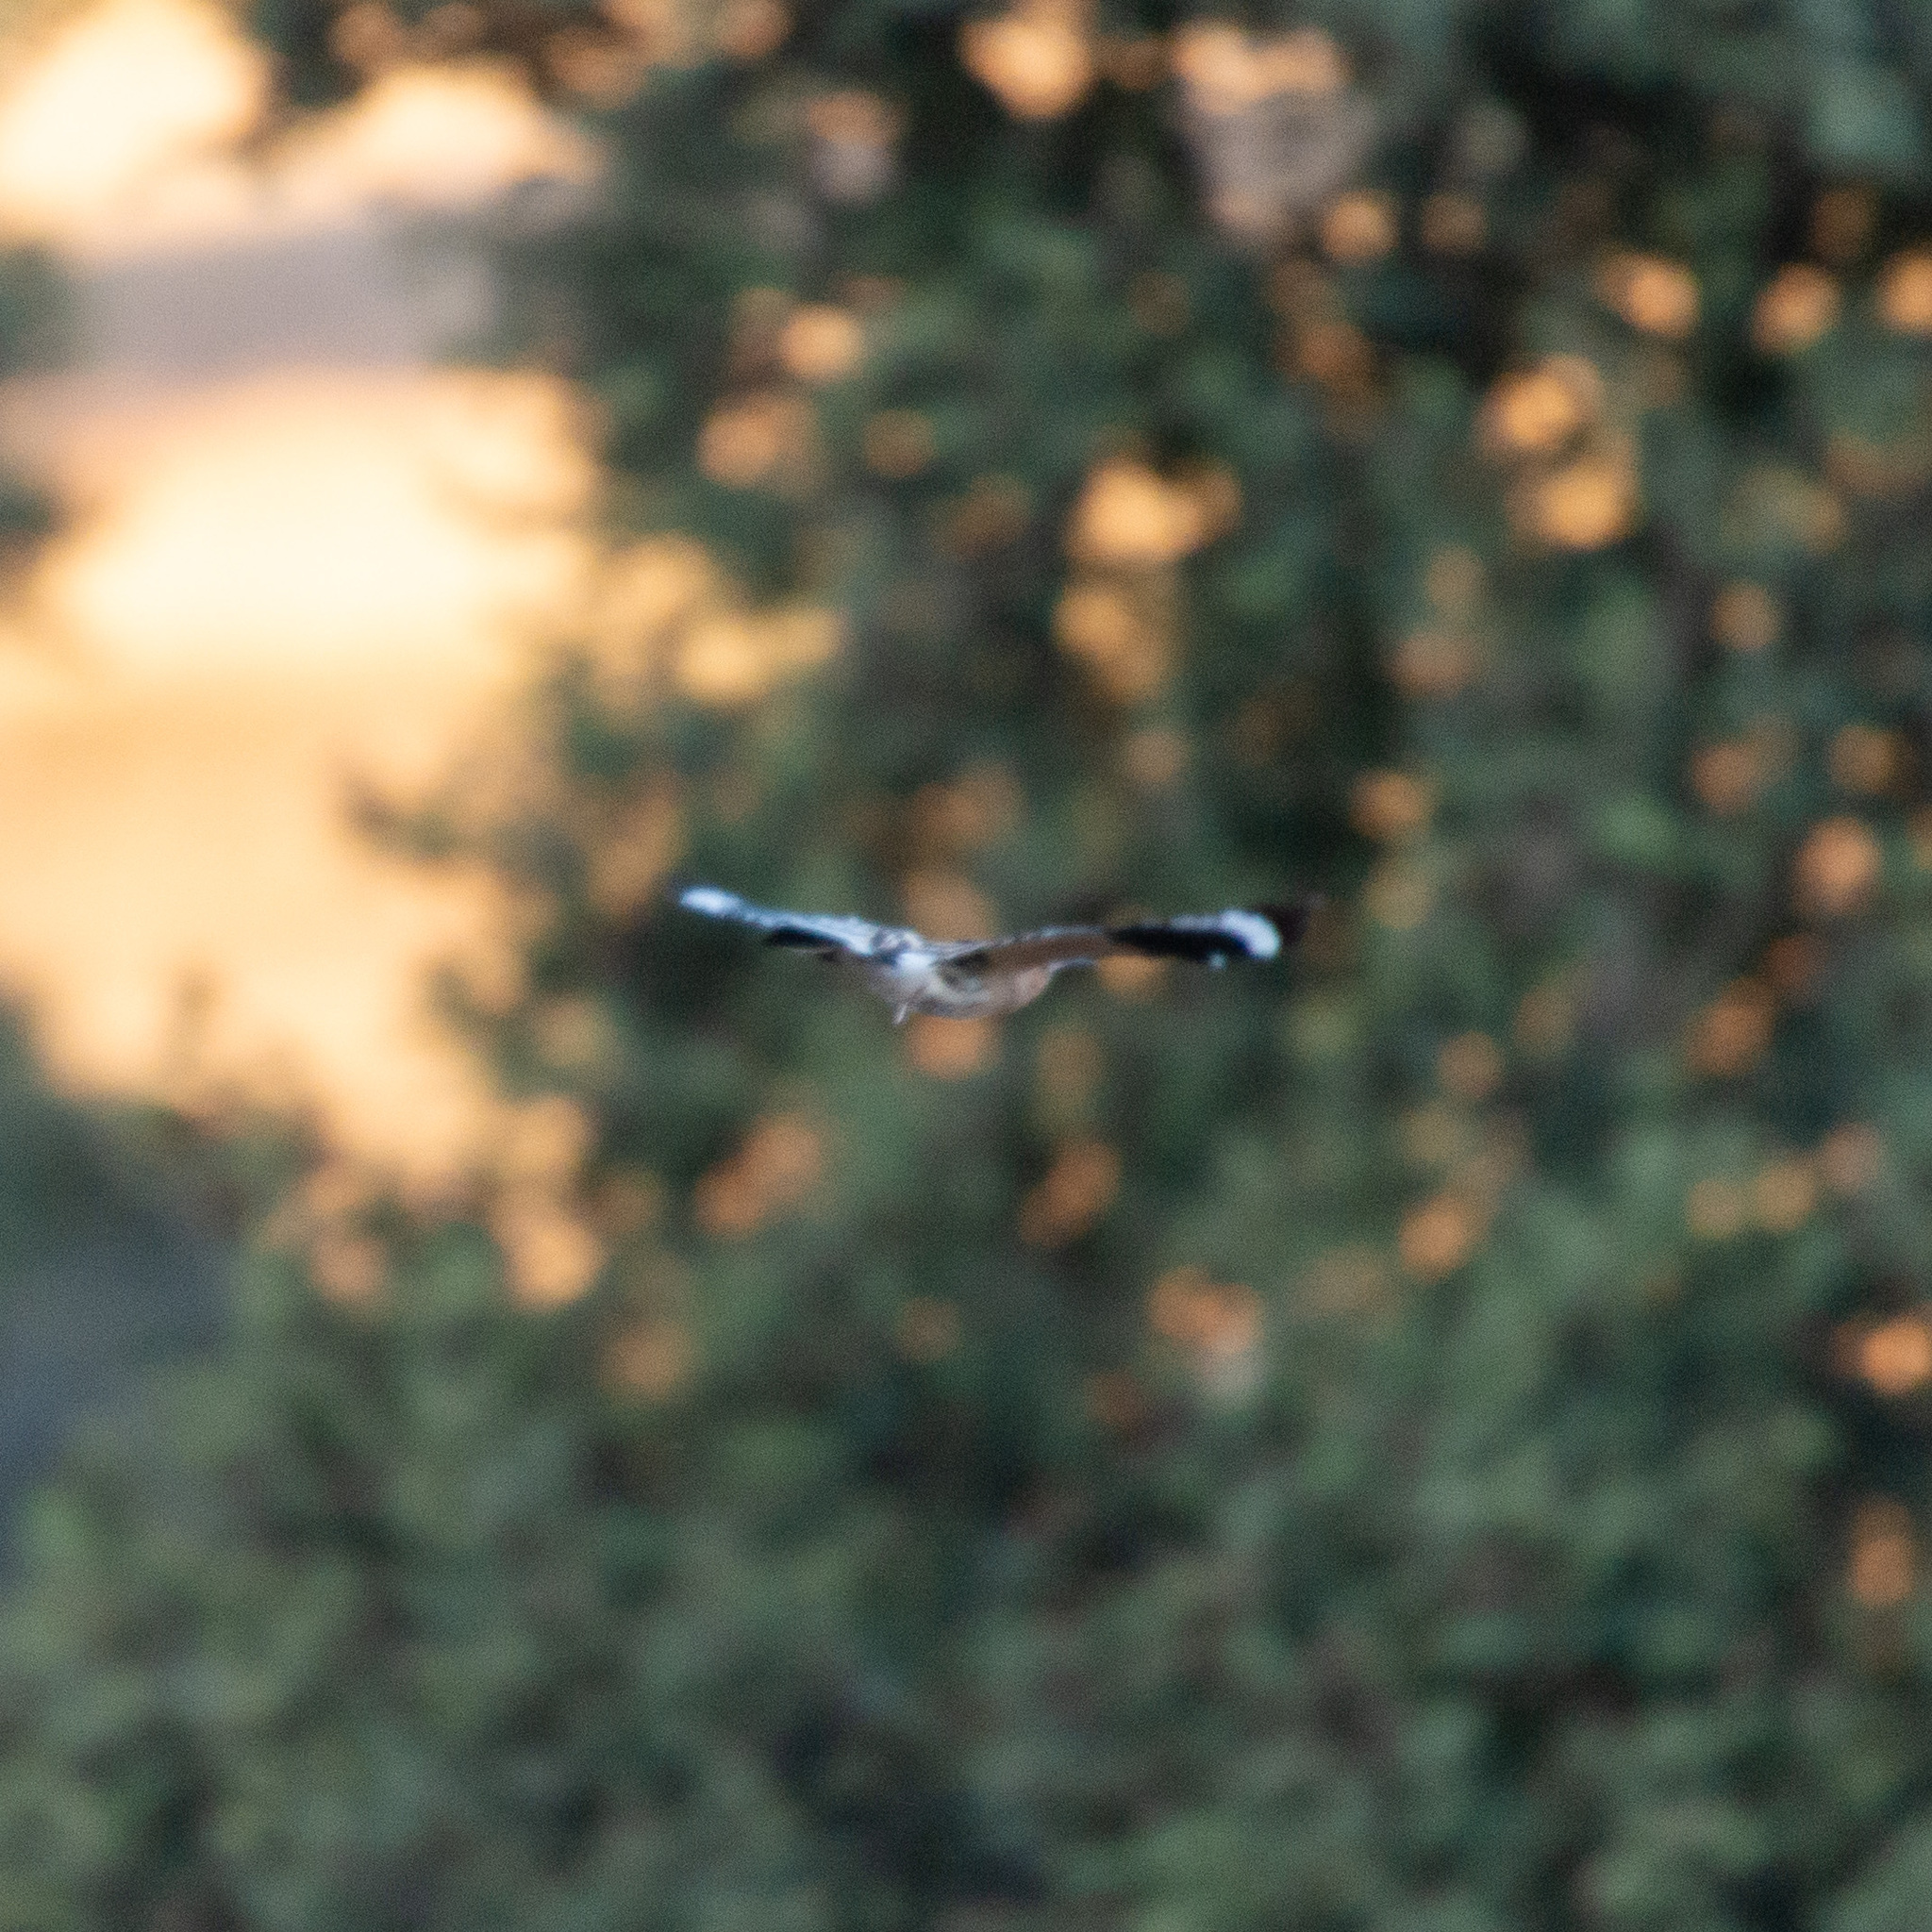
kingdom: Animalia
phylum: Chordata
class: Aves
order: Bucerotiformes
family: Upupidae
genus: Upupa
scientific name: Upupa epops
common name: Eurasian hoopoe
